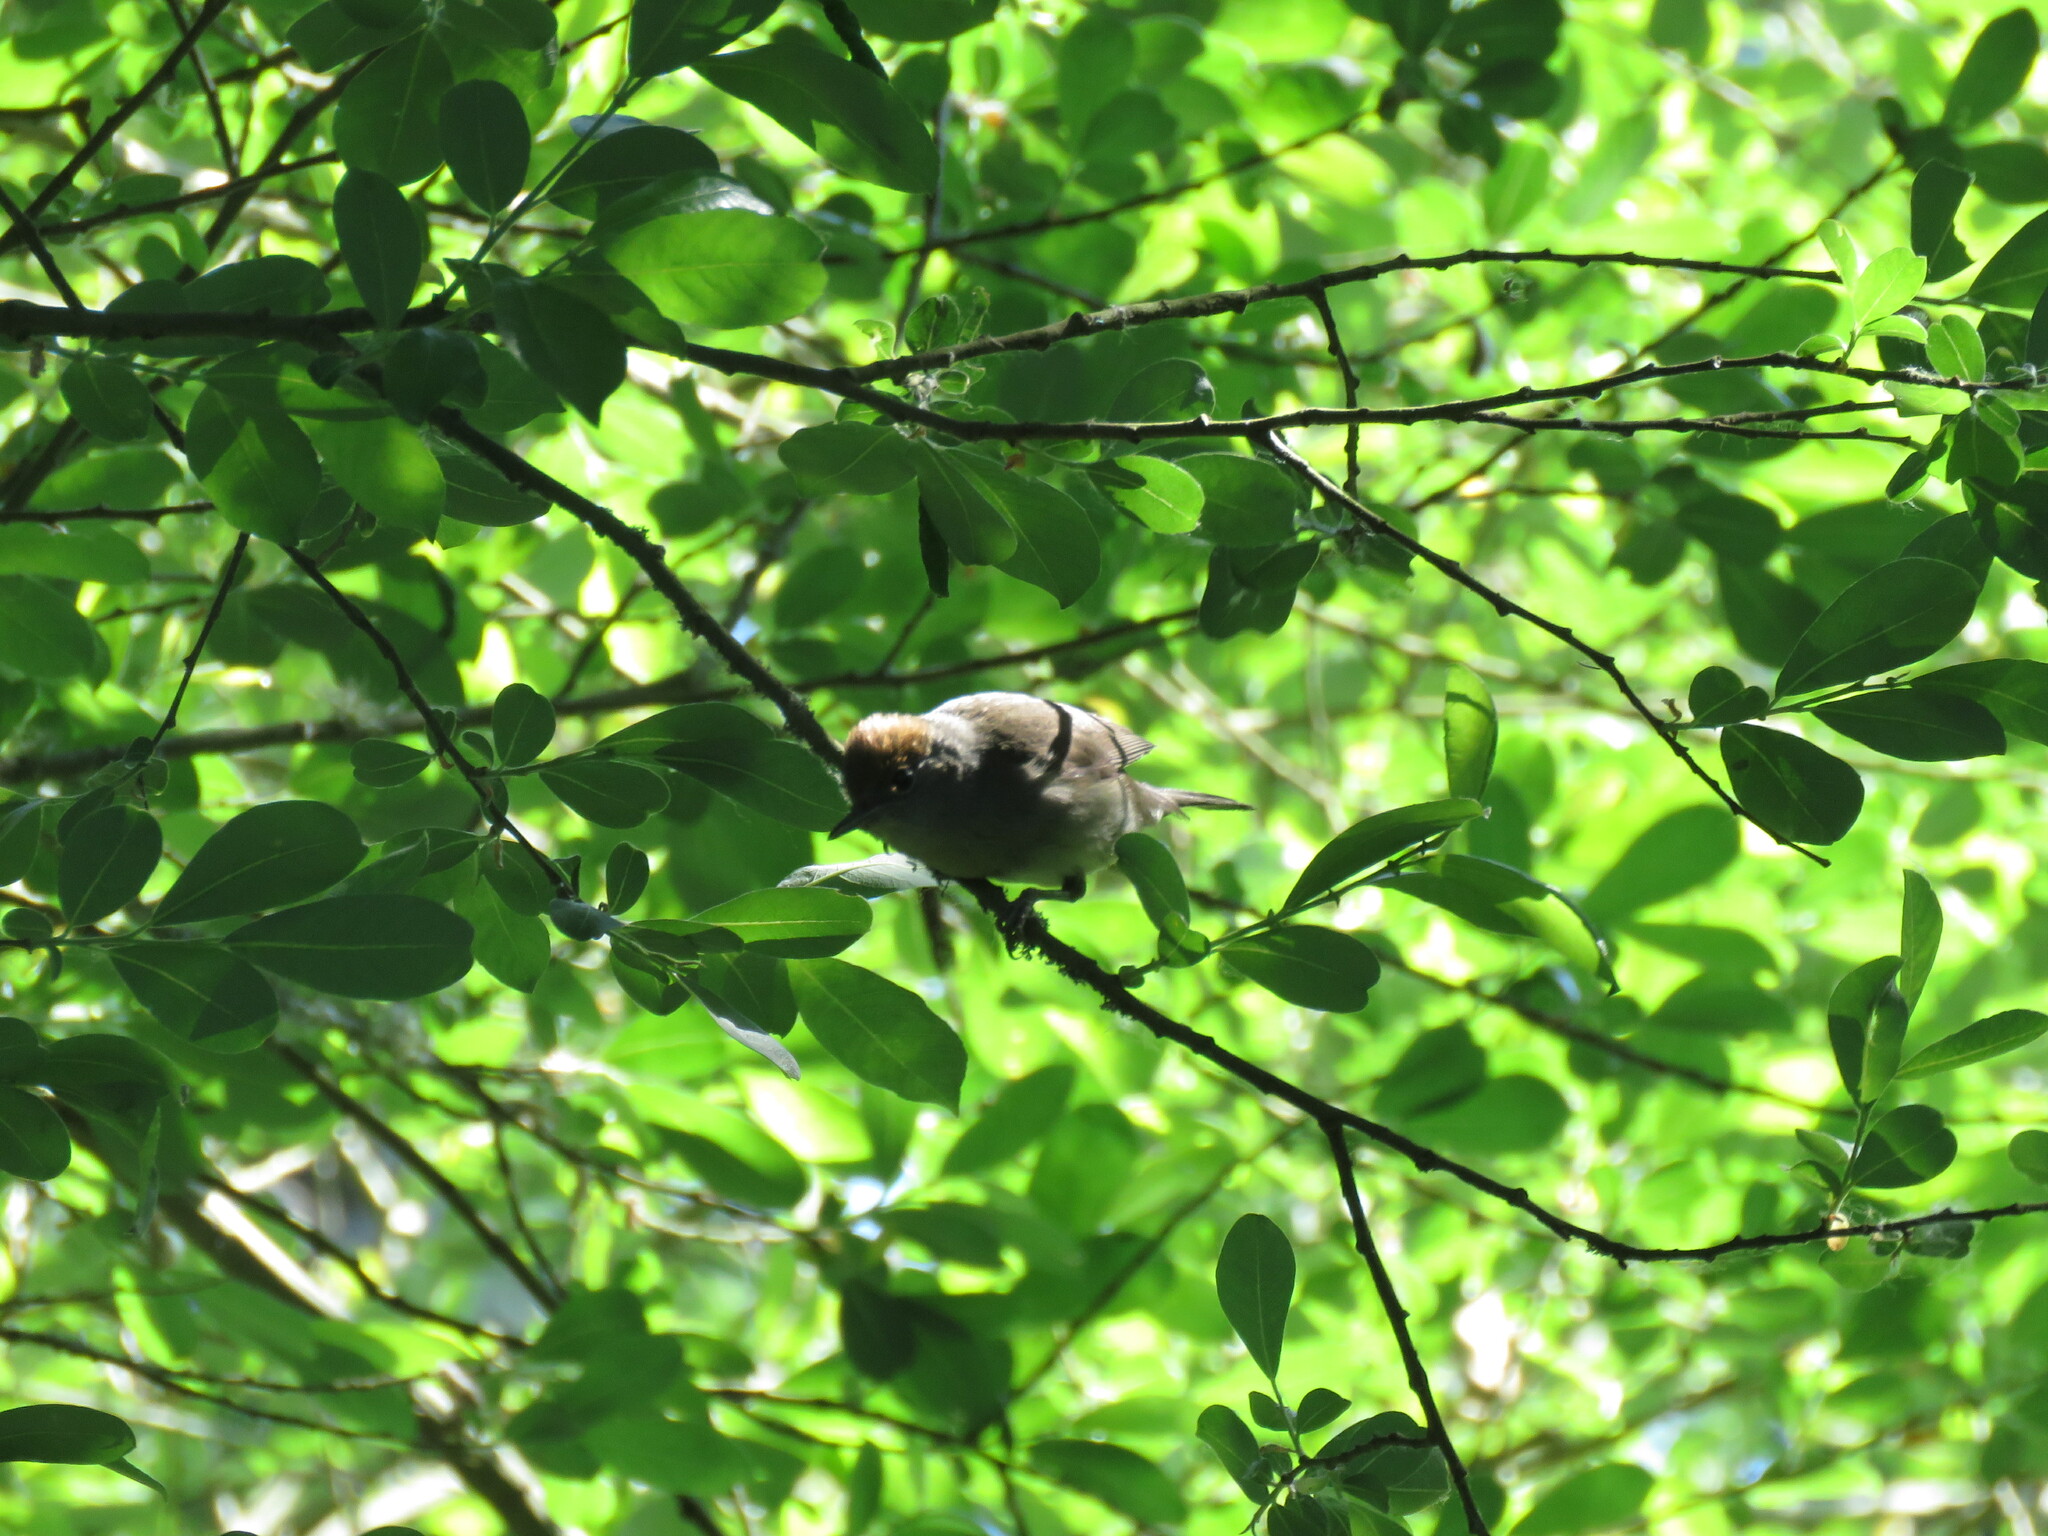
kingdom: Animalia
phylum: Chordata
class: Aves
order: Passeriformes
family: Sylviidae
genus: Sylvia
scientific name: Sylvia atricapilla
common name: Eurasian blackcap
